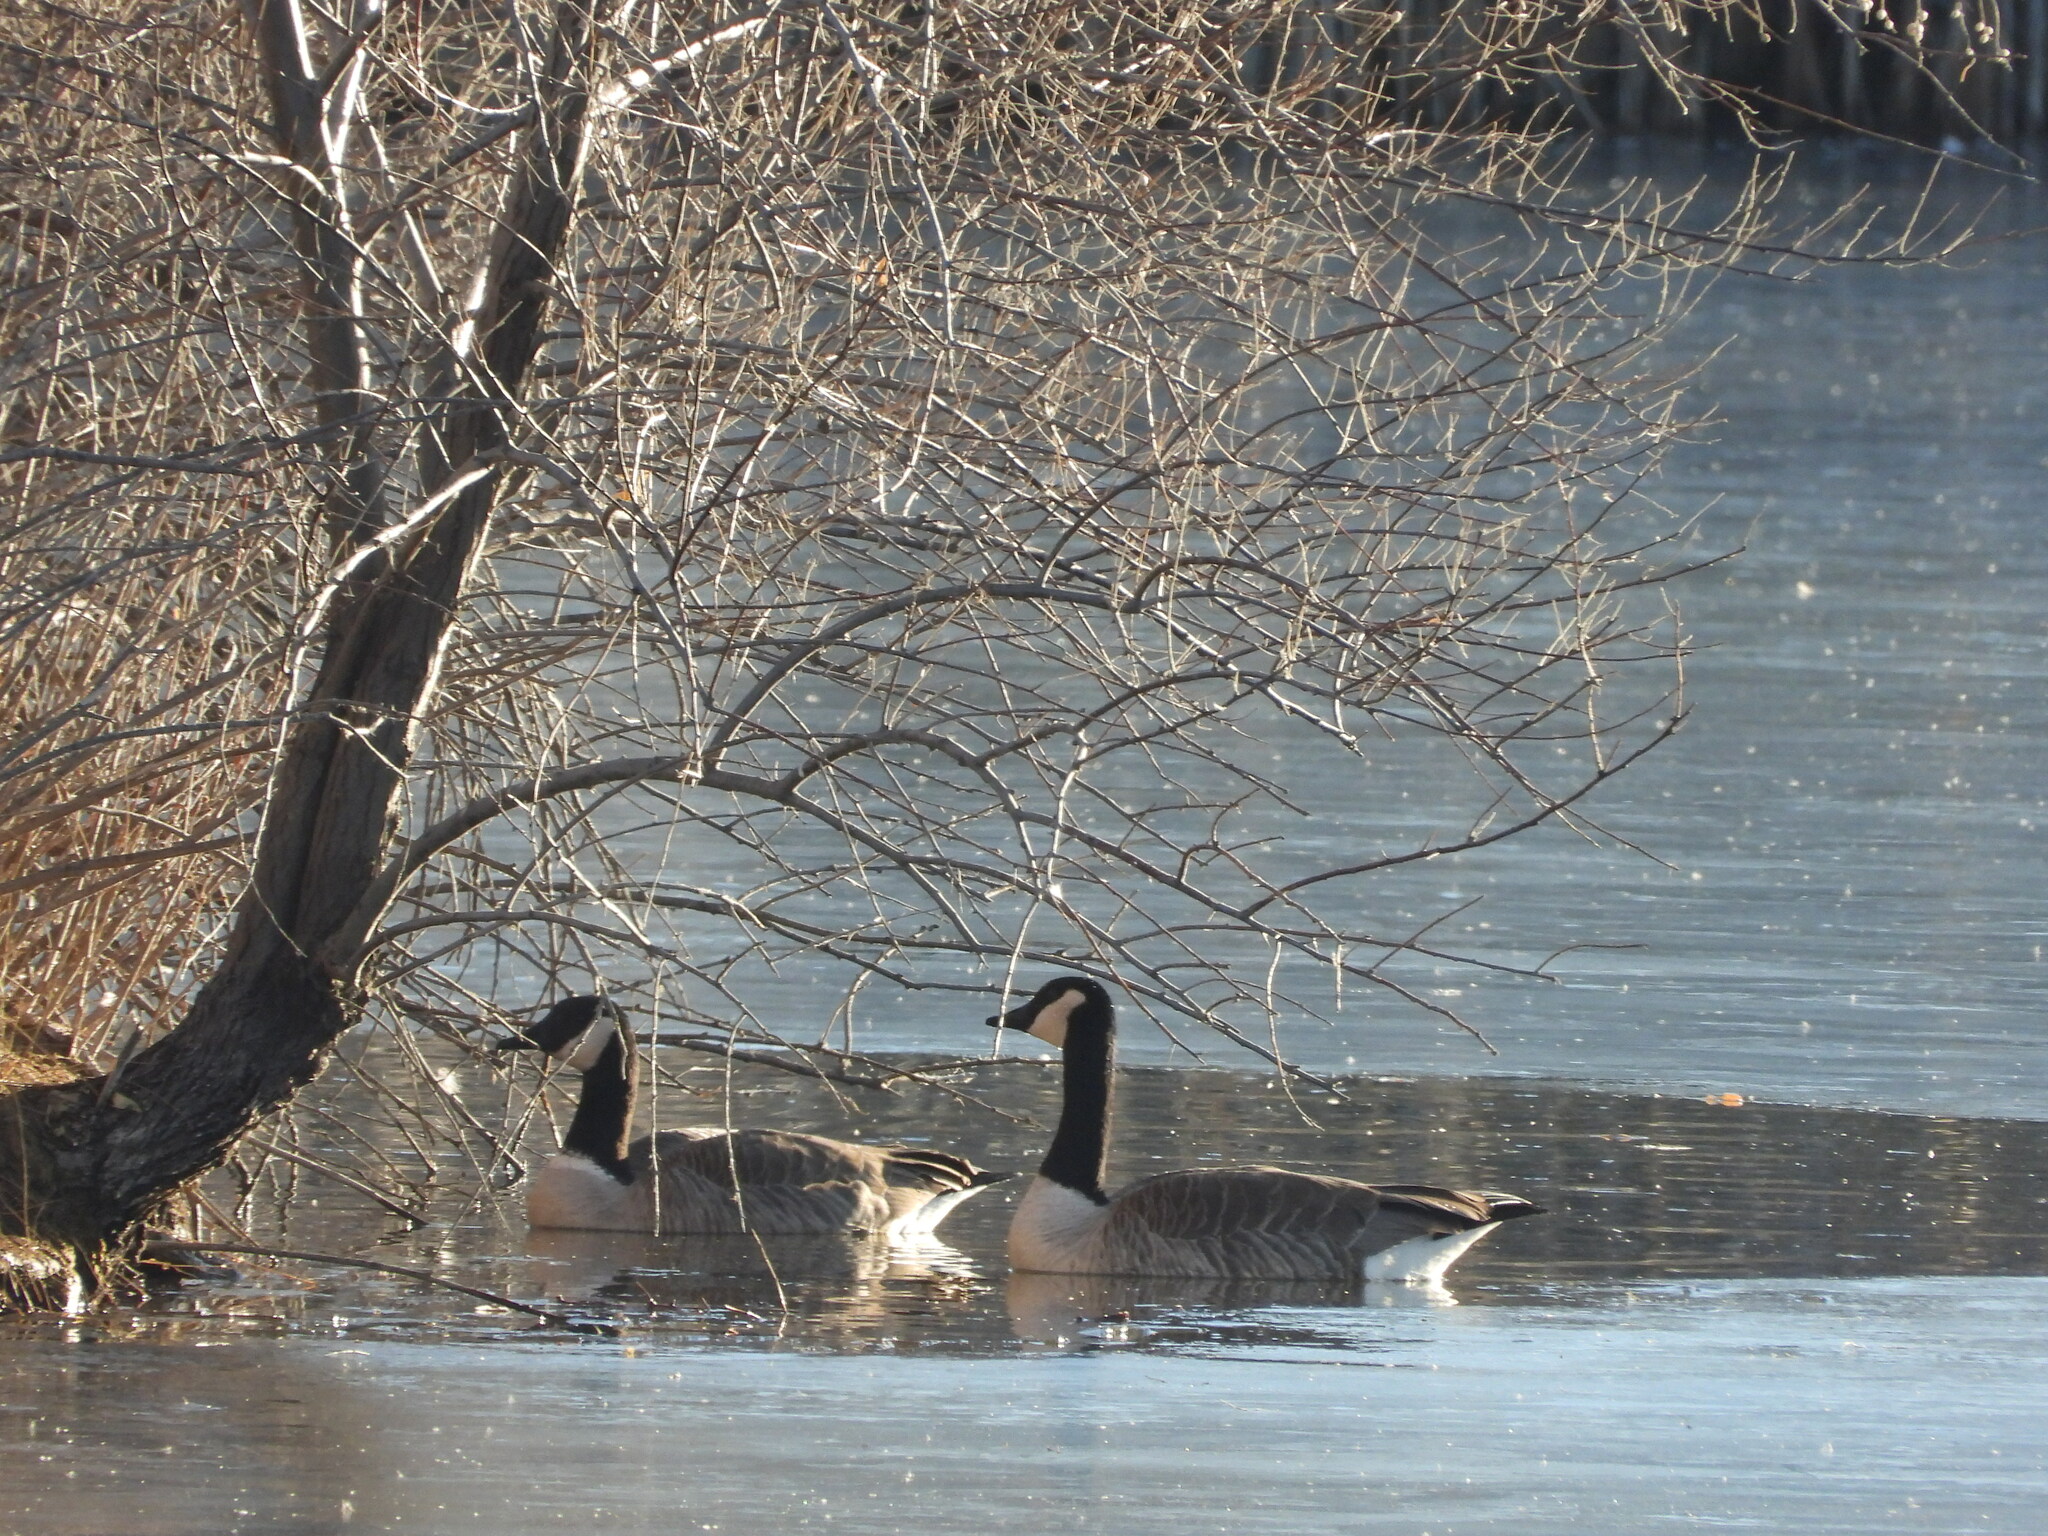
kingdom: Animalia
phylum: Chordata
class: Aves
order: Anseriformes
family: Anatidae
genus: Branta
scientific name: Branta canadensis
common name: Canada goose
